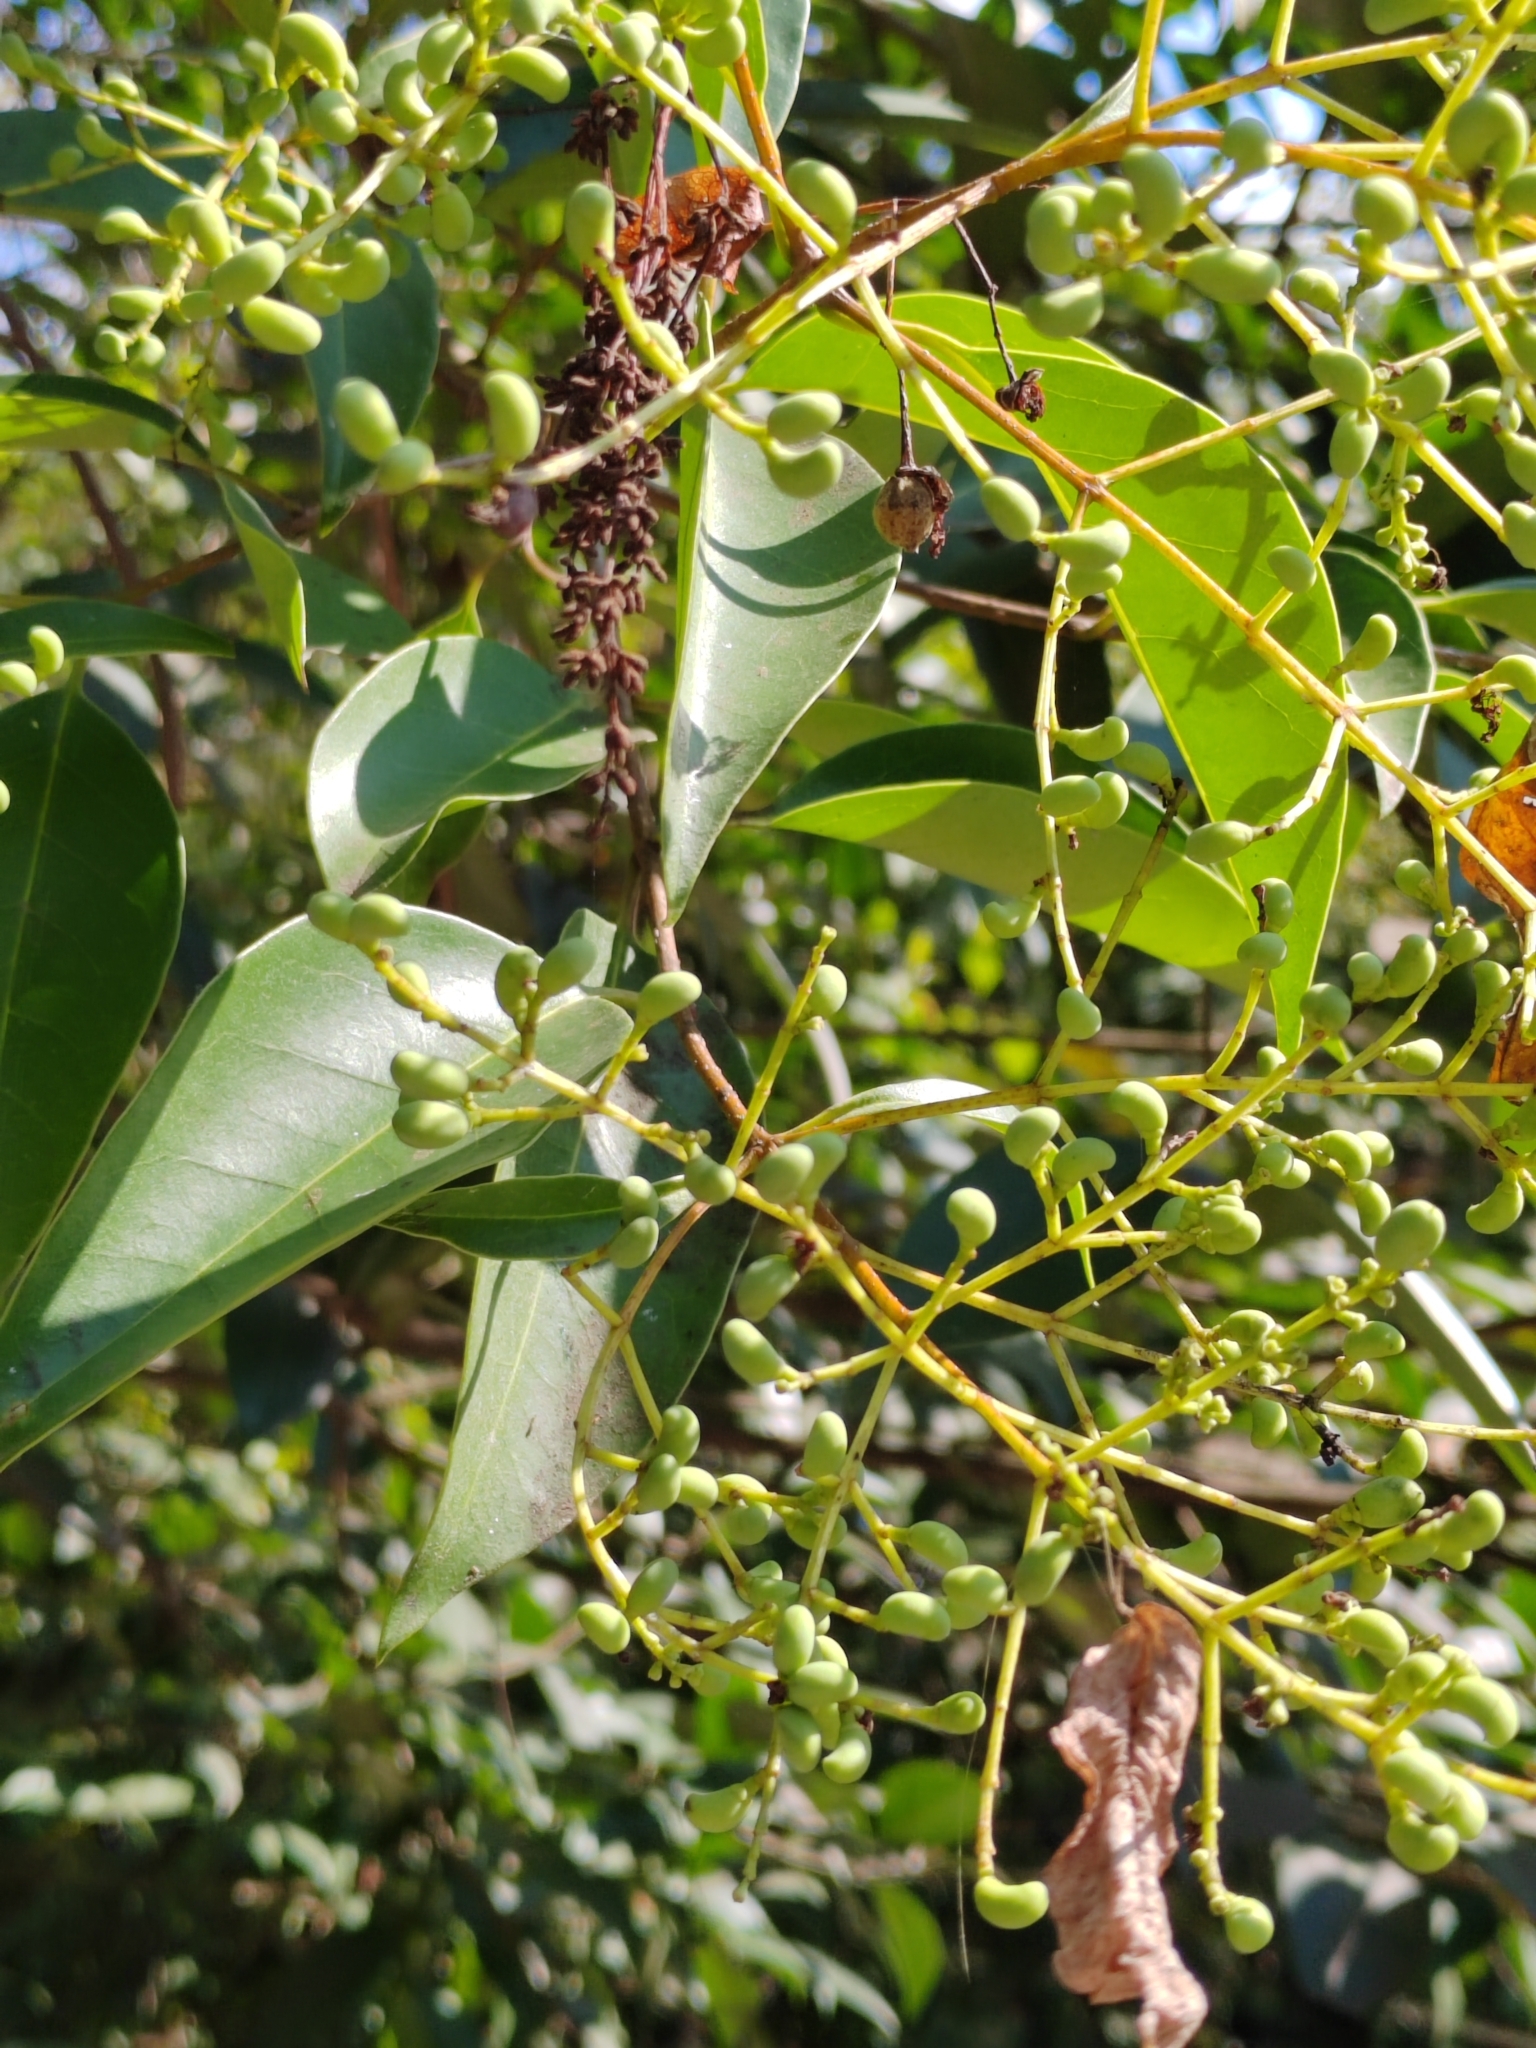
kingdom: Plantae
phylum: Tracheophyta
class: Magnoliopsida
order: Lamiales
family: Oleaceae
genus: Ligustrum
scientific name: Ligustrum lucidum
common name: Glossy privet
